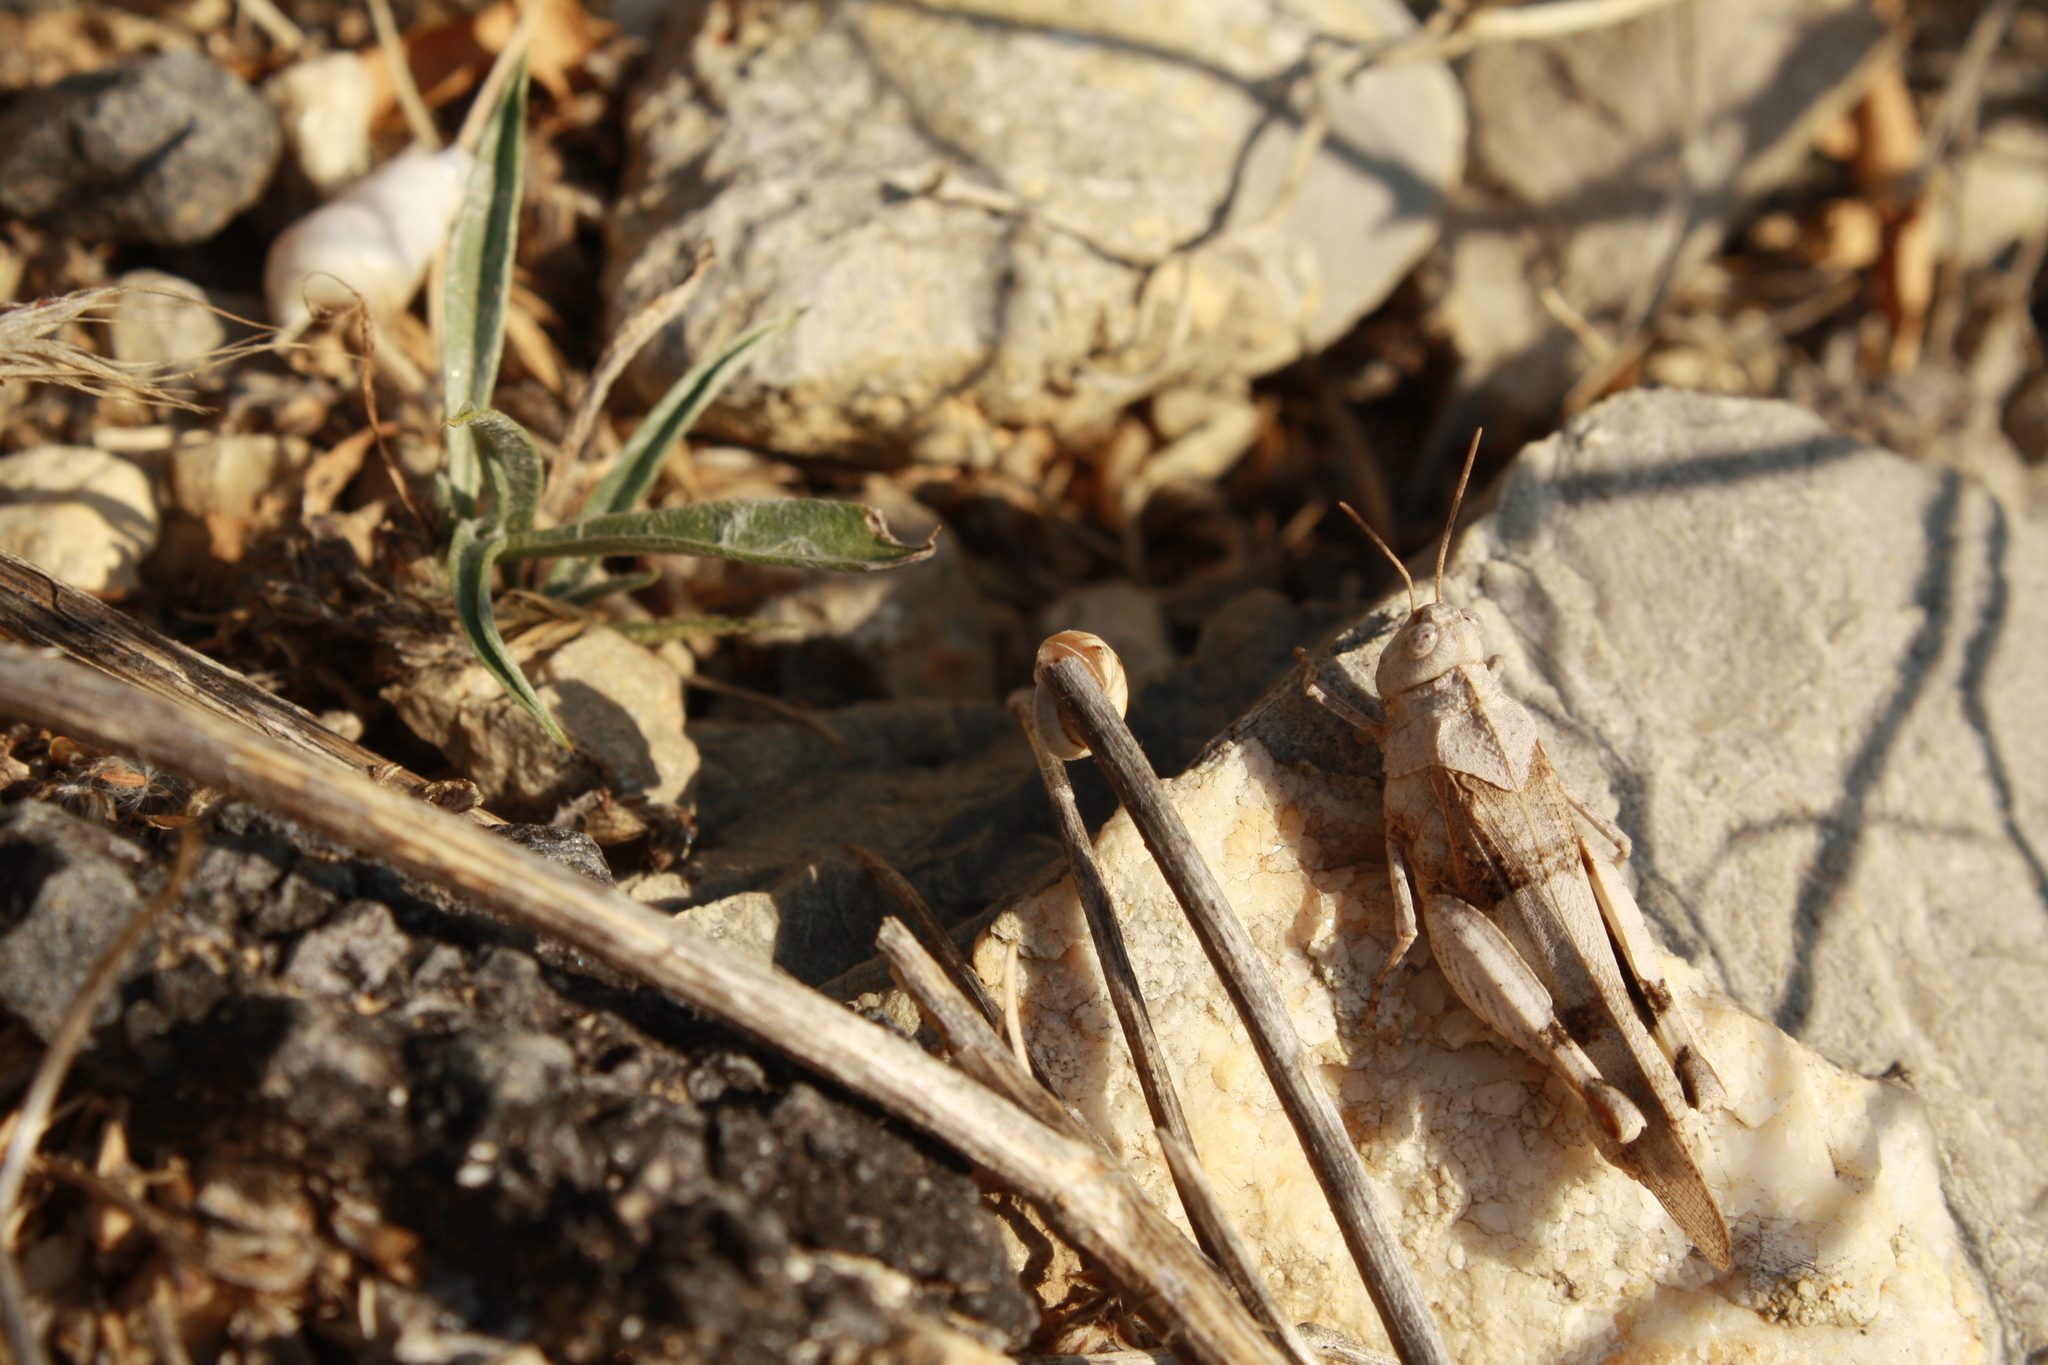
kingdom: Animalia
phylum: Arthropoda
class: Insecta
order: Orthoptera
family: Acrididae
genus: Oedipoda
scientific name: Oedipoda caerulescens
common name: Blue-winged grasshopper
